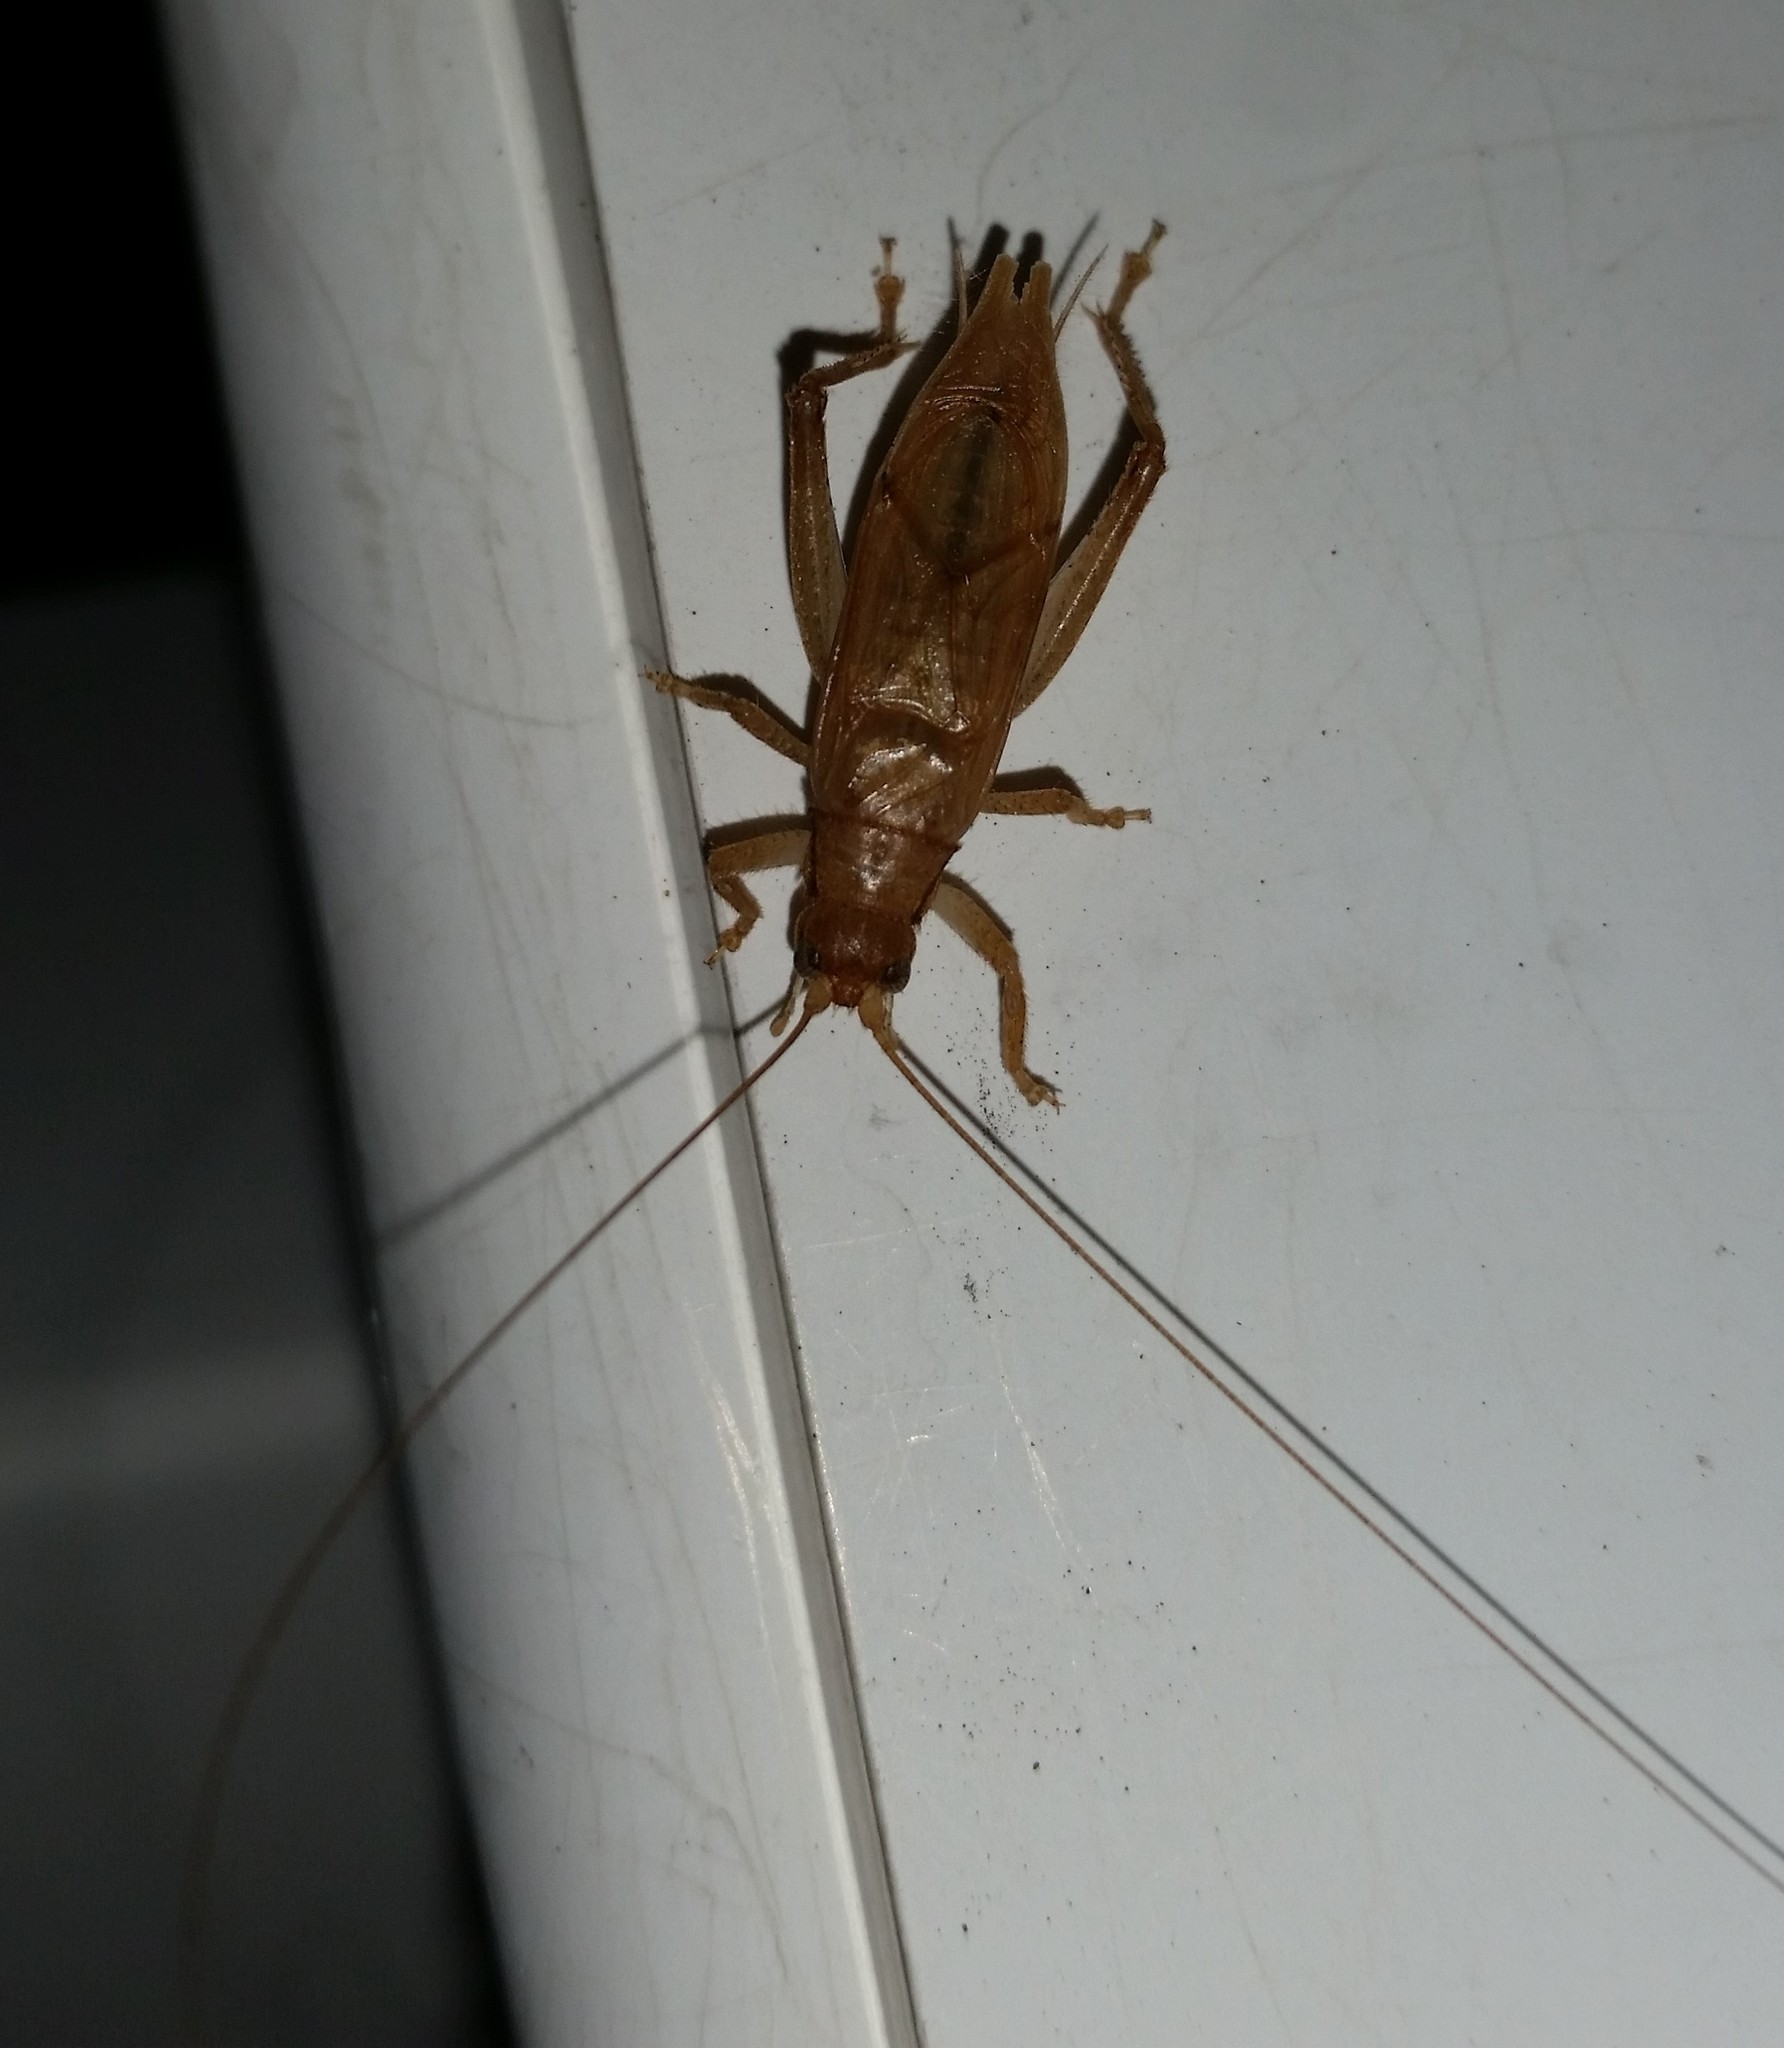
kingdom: Animalia
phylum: Arthropoda
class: Insecta
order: Orthoptera
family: Gryllidae
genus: Hapithus
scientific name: Hapithus saltator
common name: Jumping bush cricket
